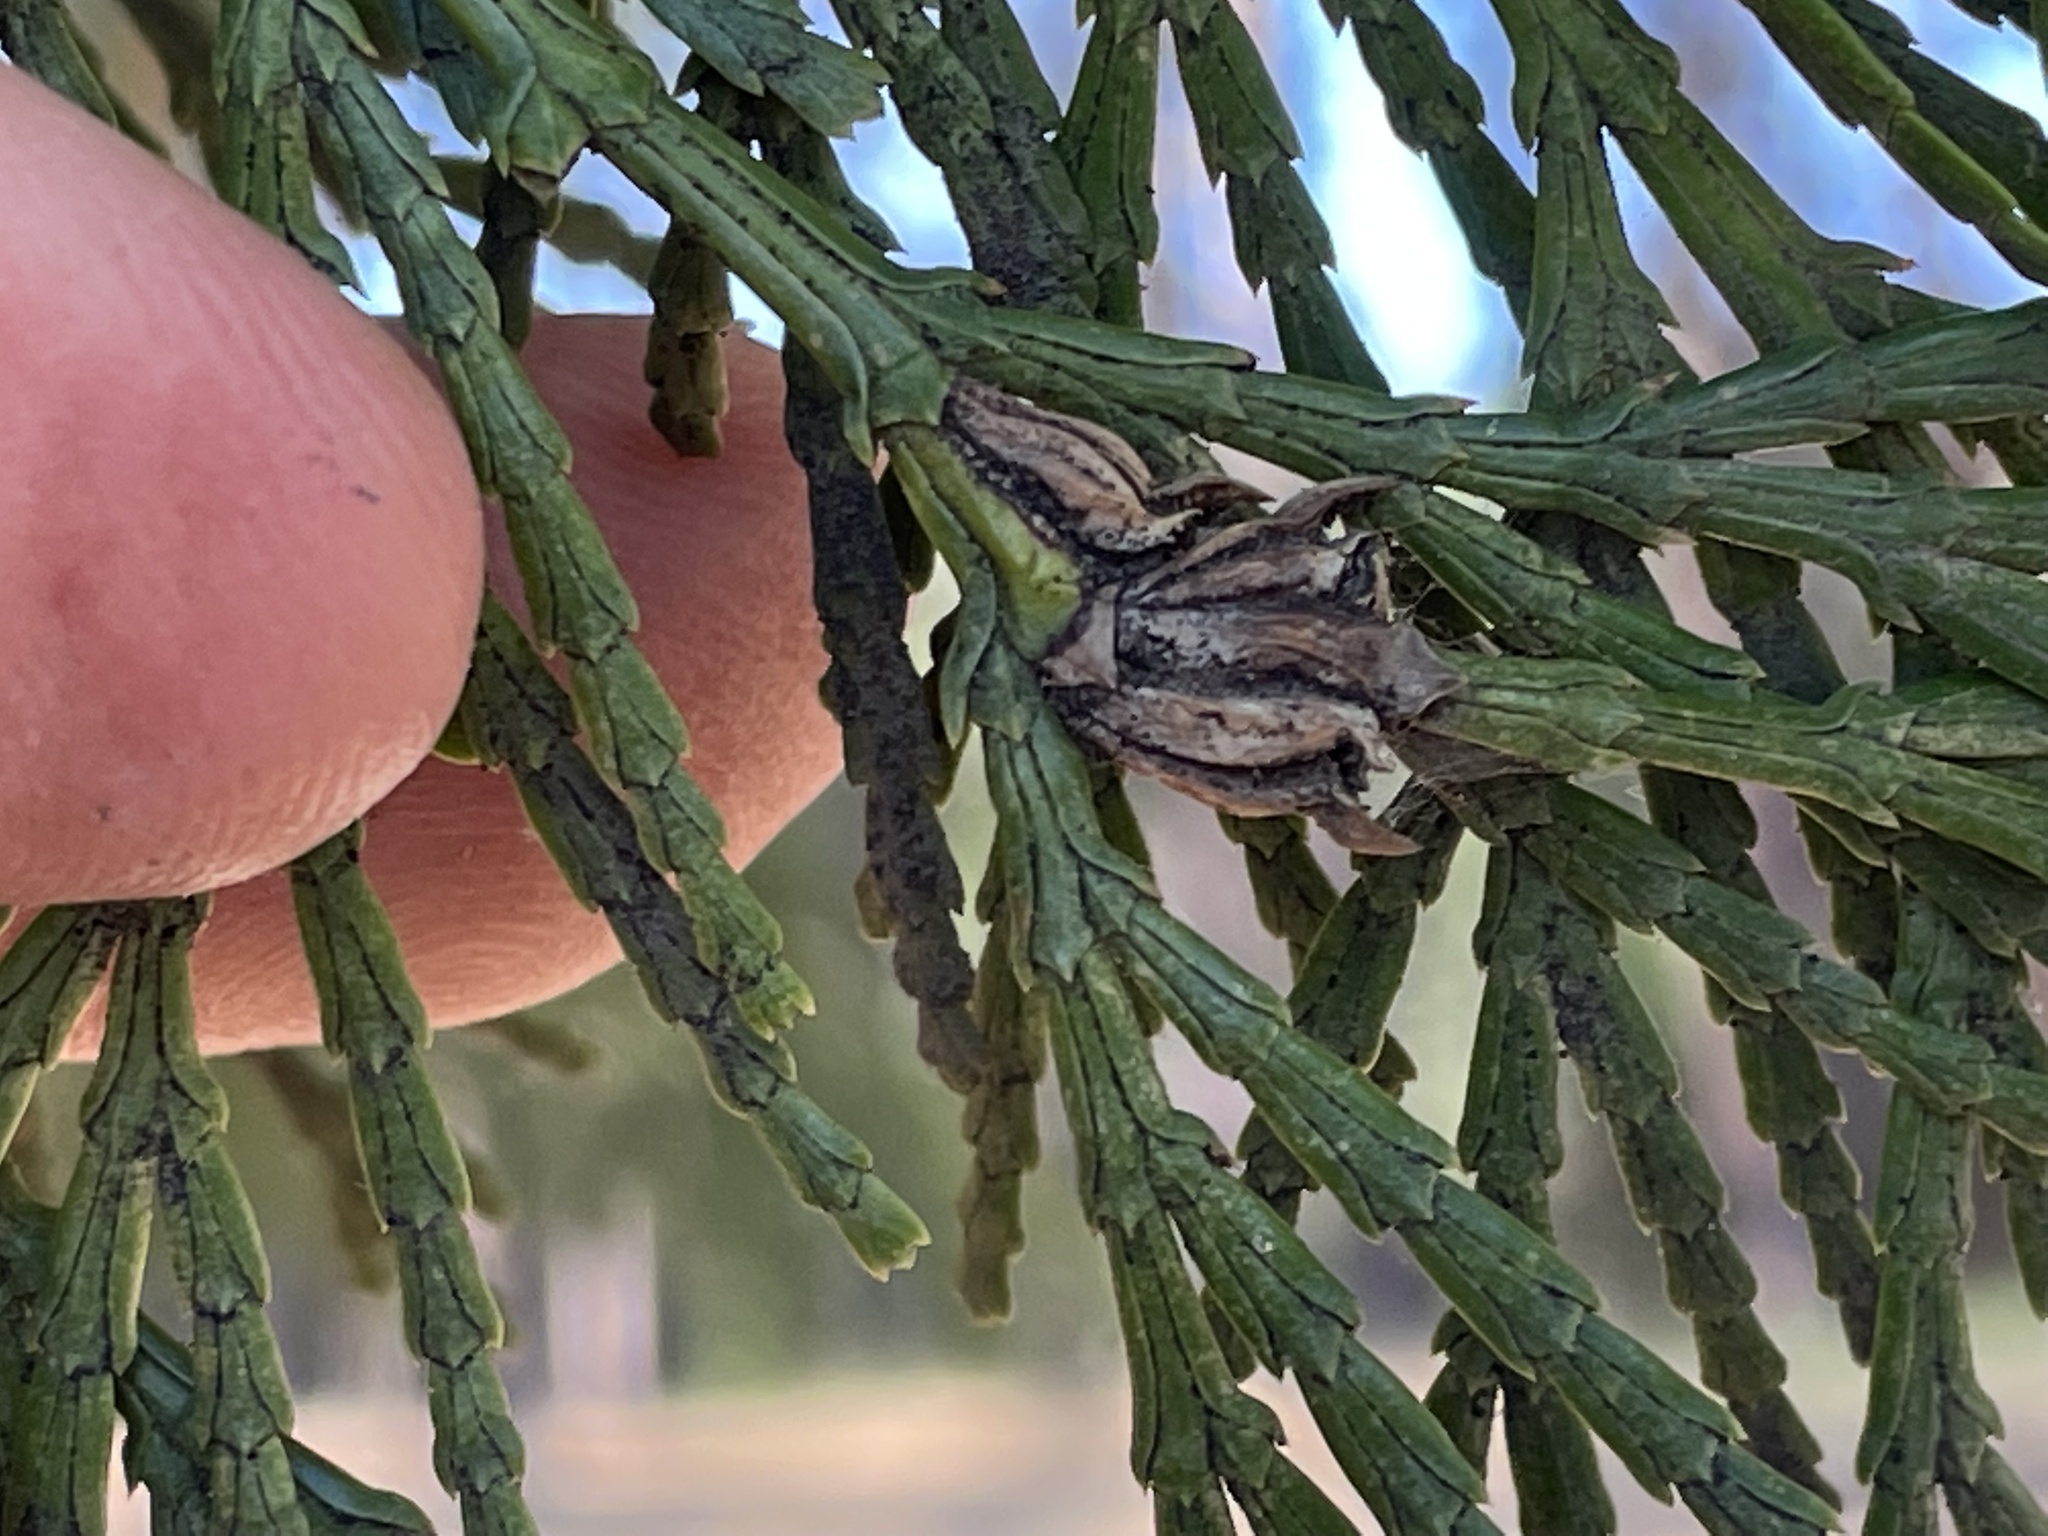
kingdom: Animalia
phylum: Arthropoda
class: Insecta
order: Diptera
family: Cecidomyiidae
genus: Walshomyia
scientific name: Walshomyia
